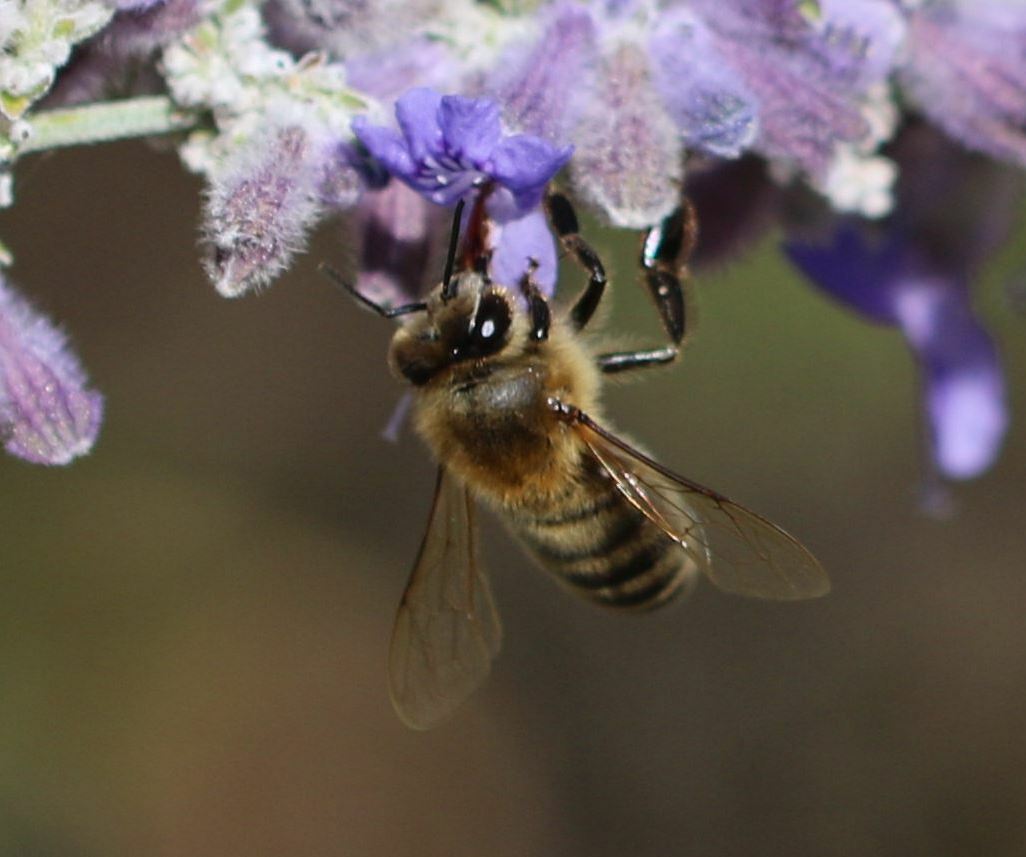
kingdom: Animalia
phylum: Arthropoda
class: Insecta
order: Hymenoptera
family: Apidae
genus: Apis
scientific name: Apis mellifera
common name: Honey bee
